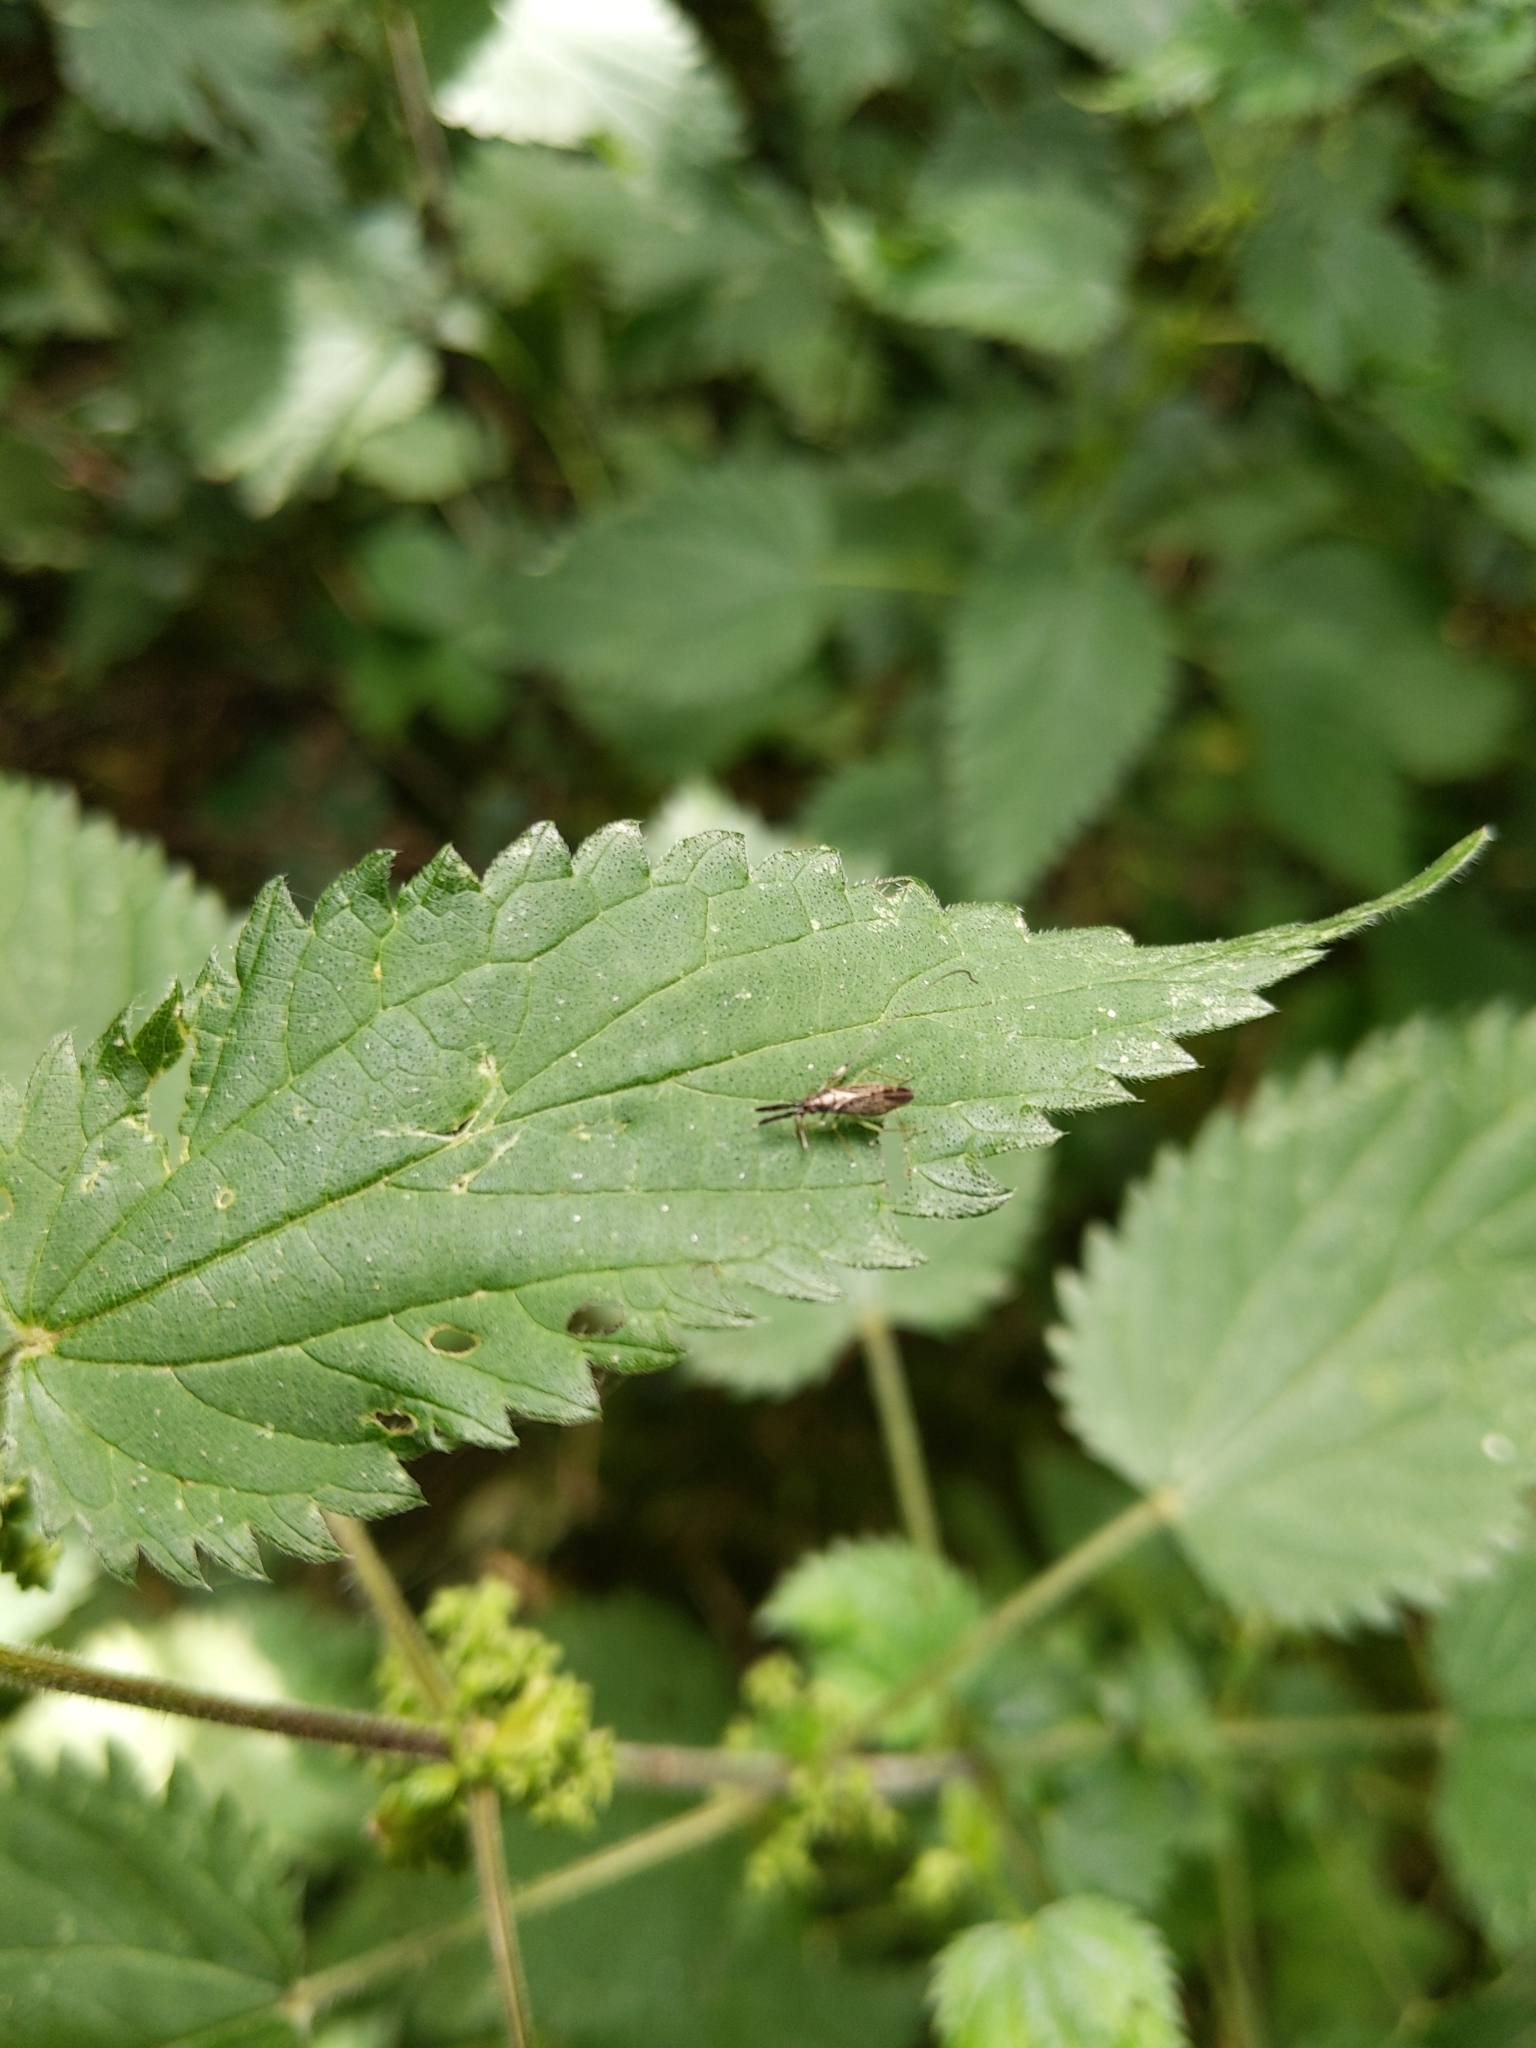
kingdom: Animalia
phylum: Arthropoda
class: Insecta
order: Hemiptera
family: Miridae
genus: Heterotoma
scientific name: Heterotoma planicornis
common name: Plant bug
